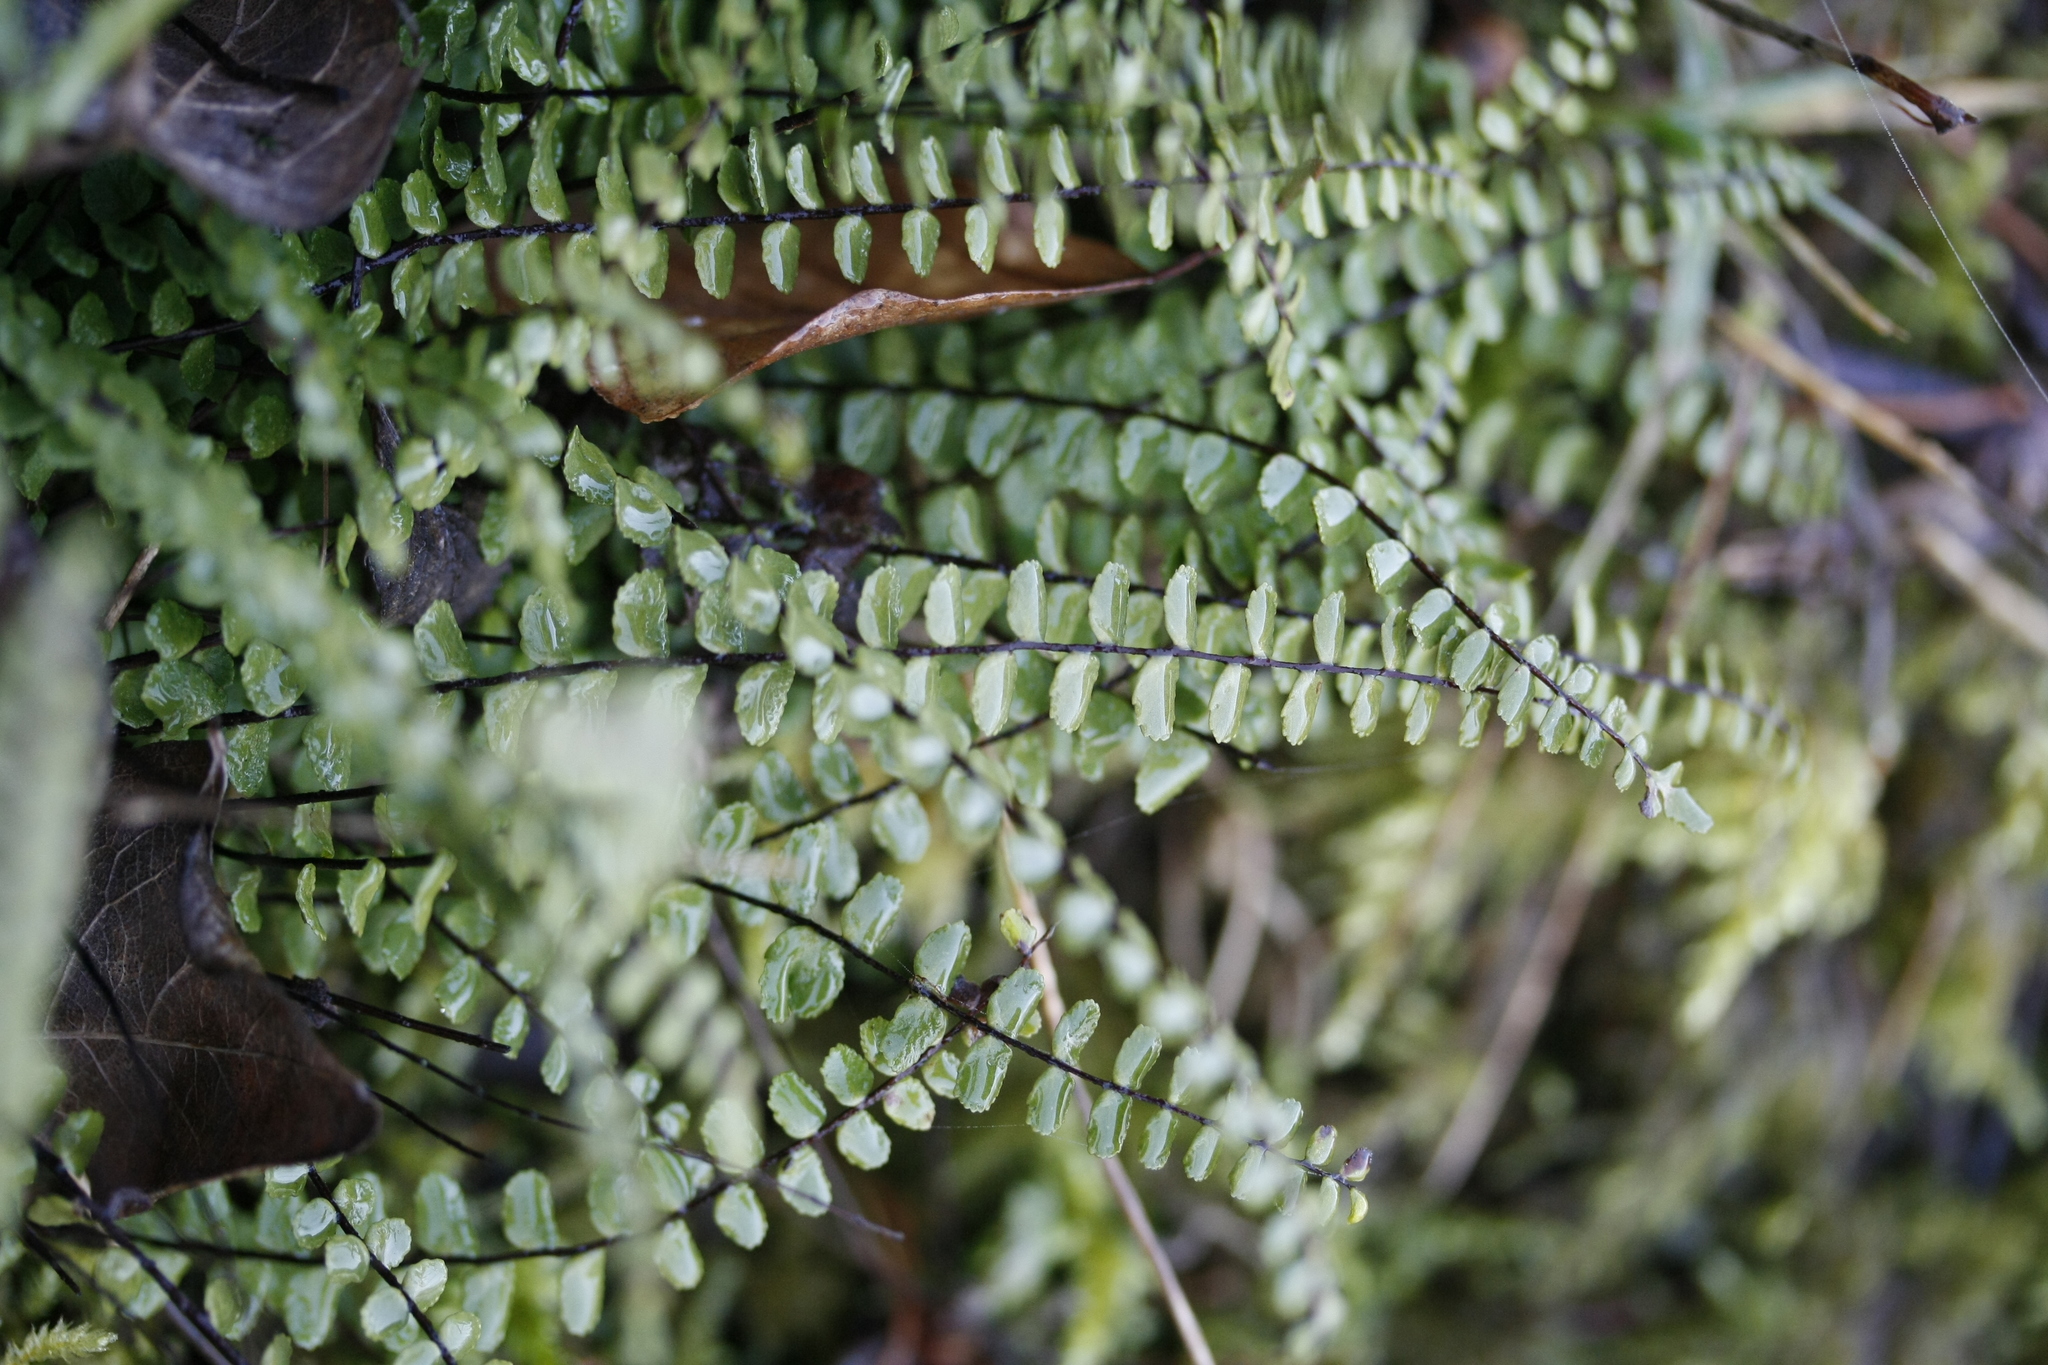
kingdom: Plantae
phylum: Tracheophyta
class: Polypodiopsida
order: Polypodiales
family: Aspleniaceae
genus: Asplenium
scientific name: Asplenium trichomanes
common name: Maidenhair spleenwort
